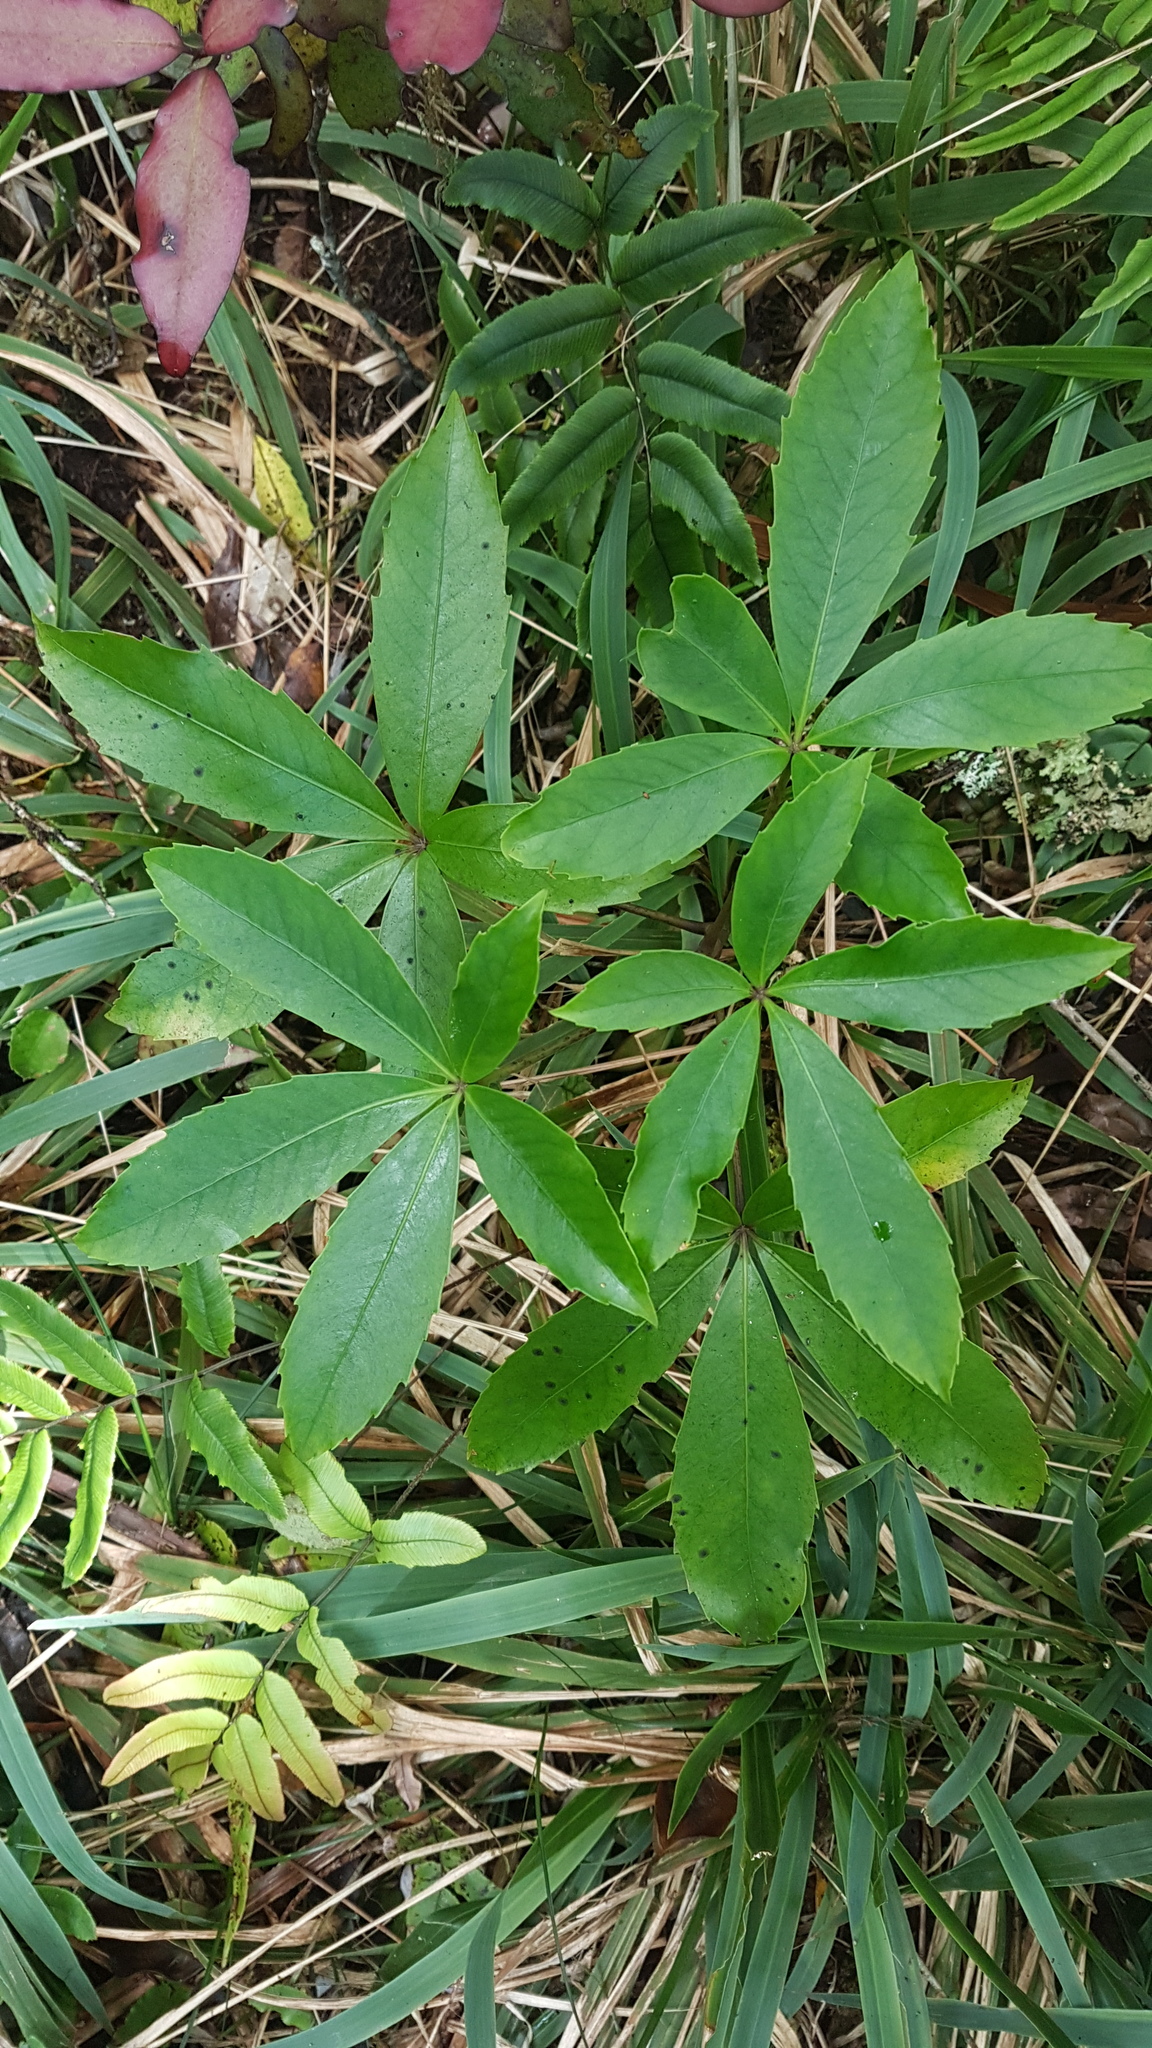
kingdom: Plantae
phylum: Tracheophyta
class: Magnoliopsida
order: Apiales
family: Araliaceae
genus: Neopanax
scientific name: Neopanax colensoi
